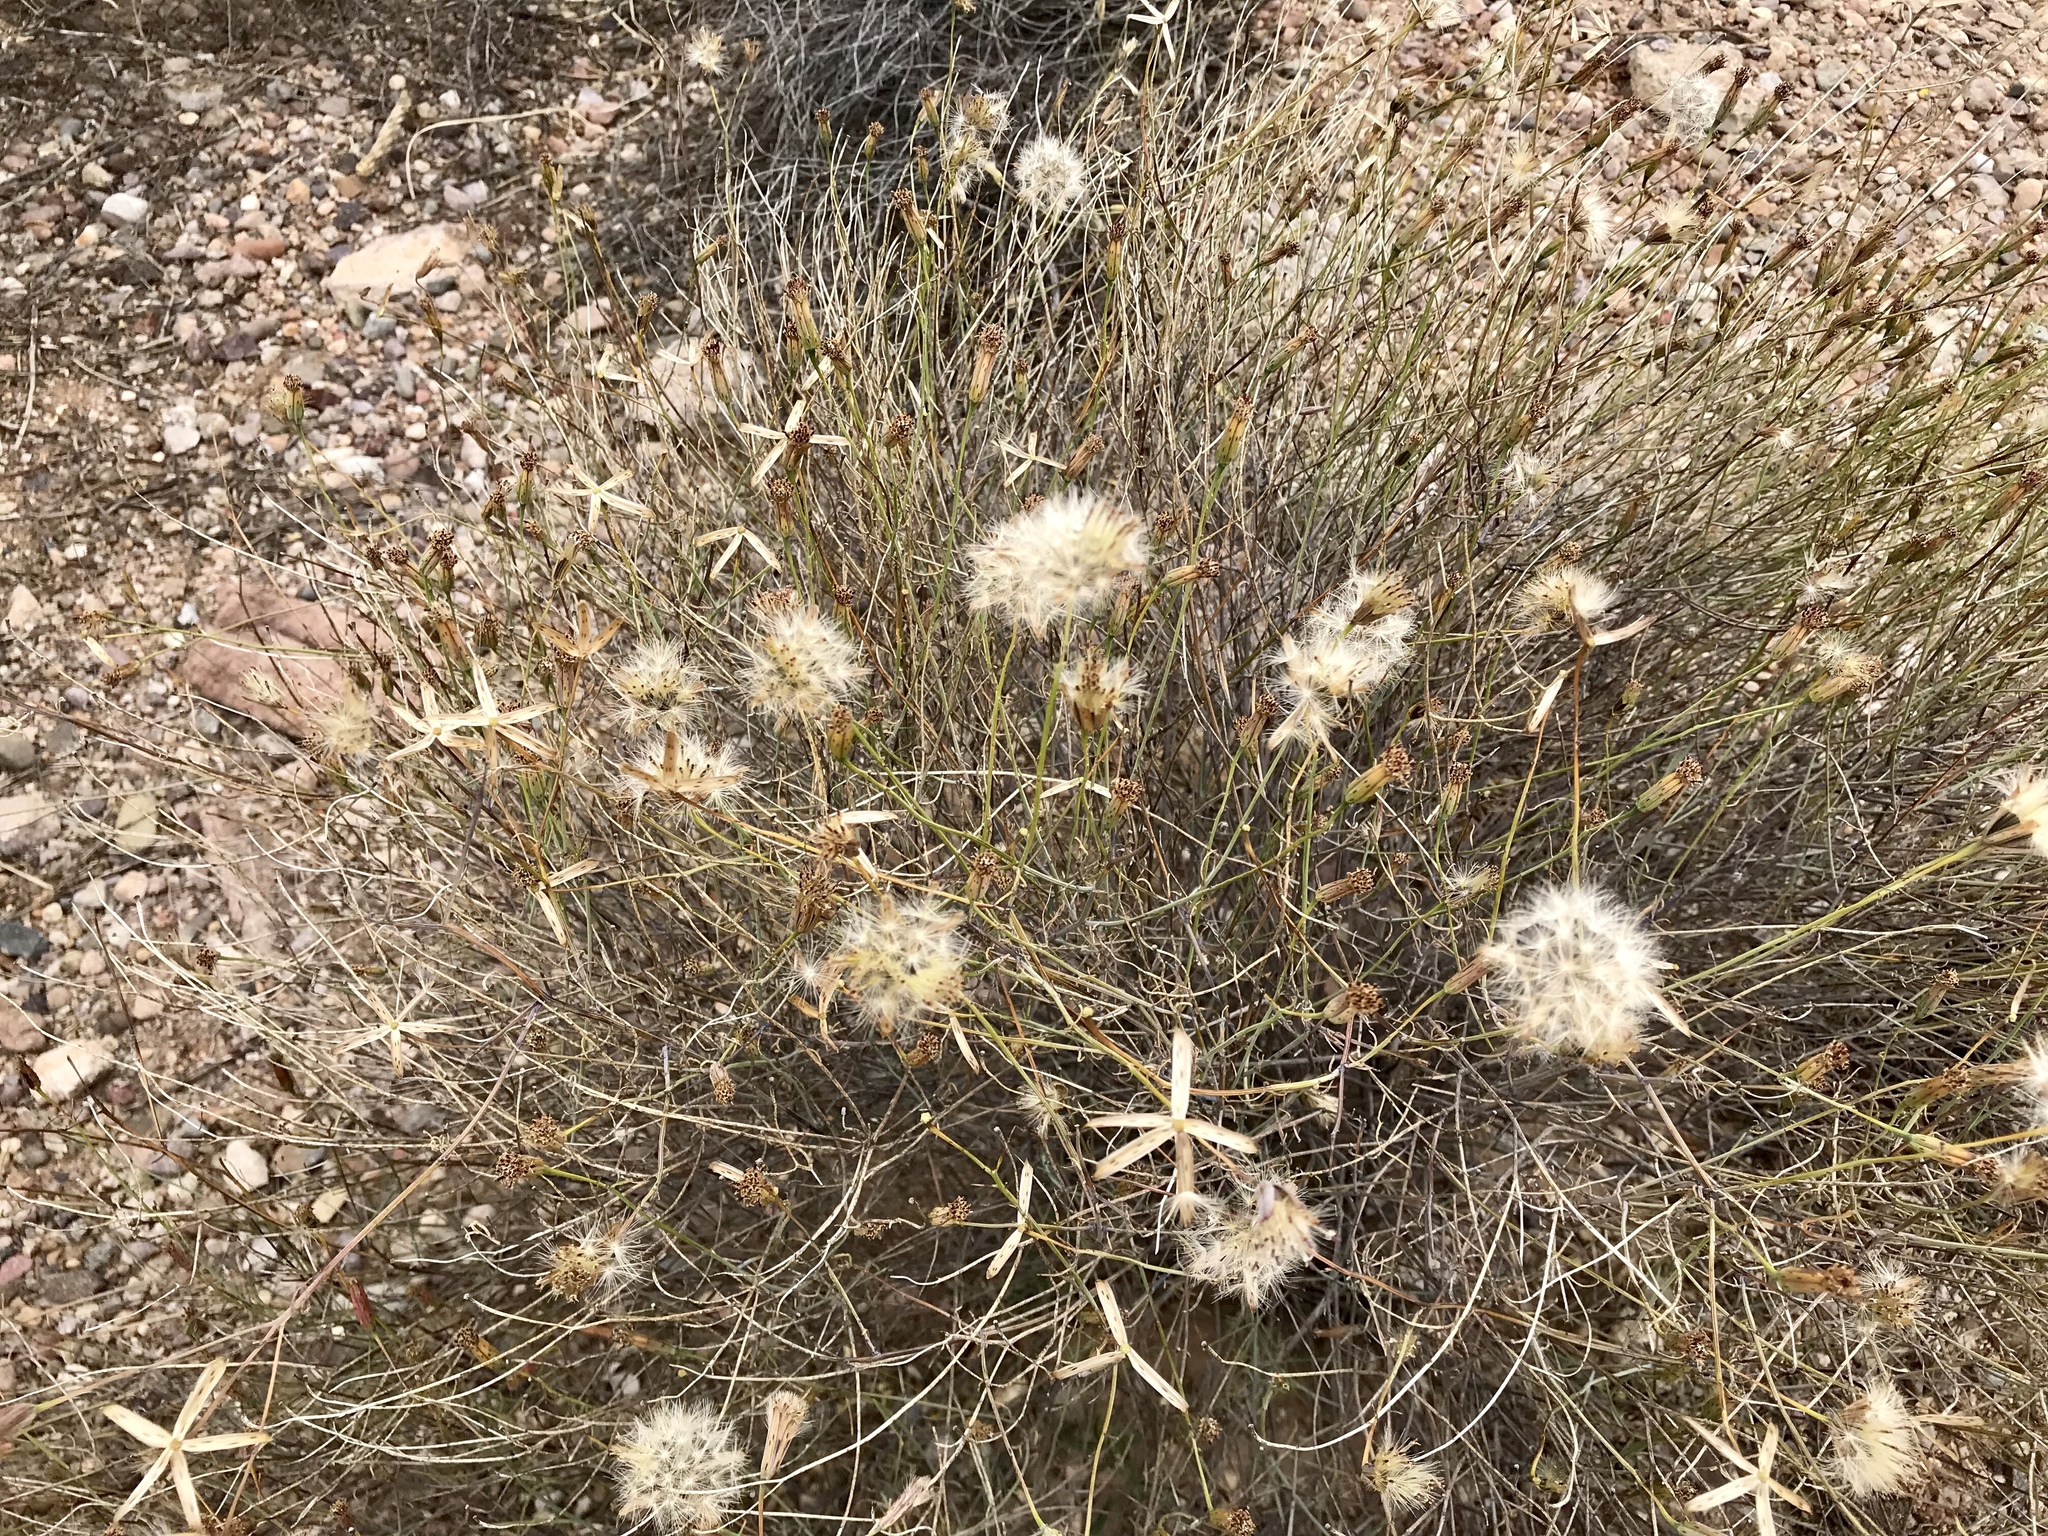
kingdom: Plantae
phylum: Tracheophyta
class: Magnoliopsida
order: Asterales
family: Asteraceae
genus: Porophyllum
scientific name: Porophyllum gracile
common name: Odora
